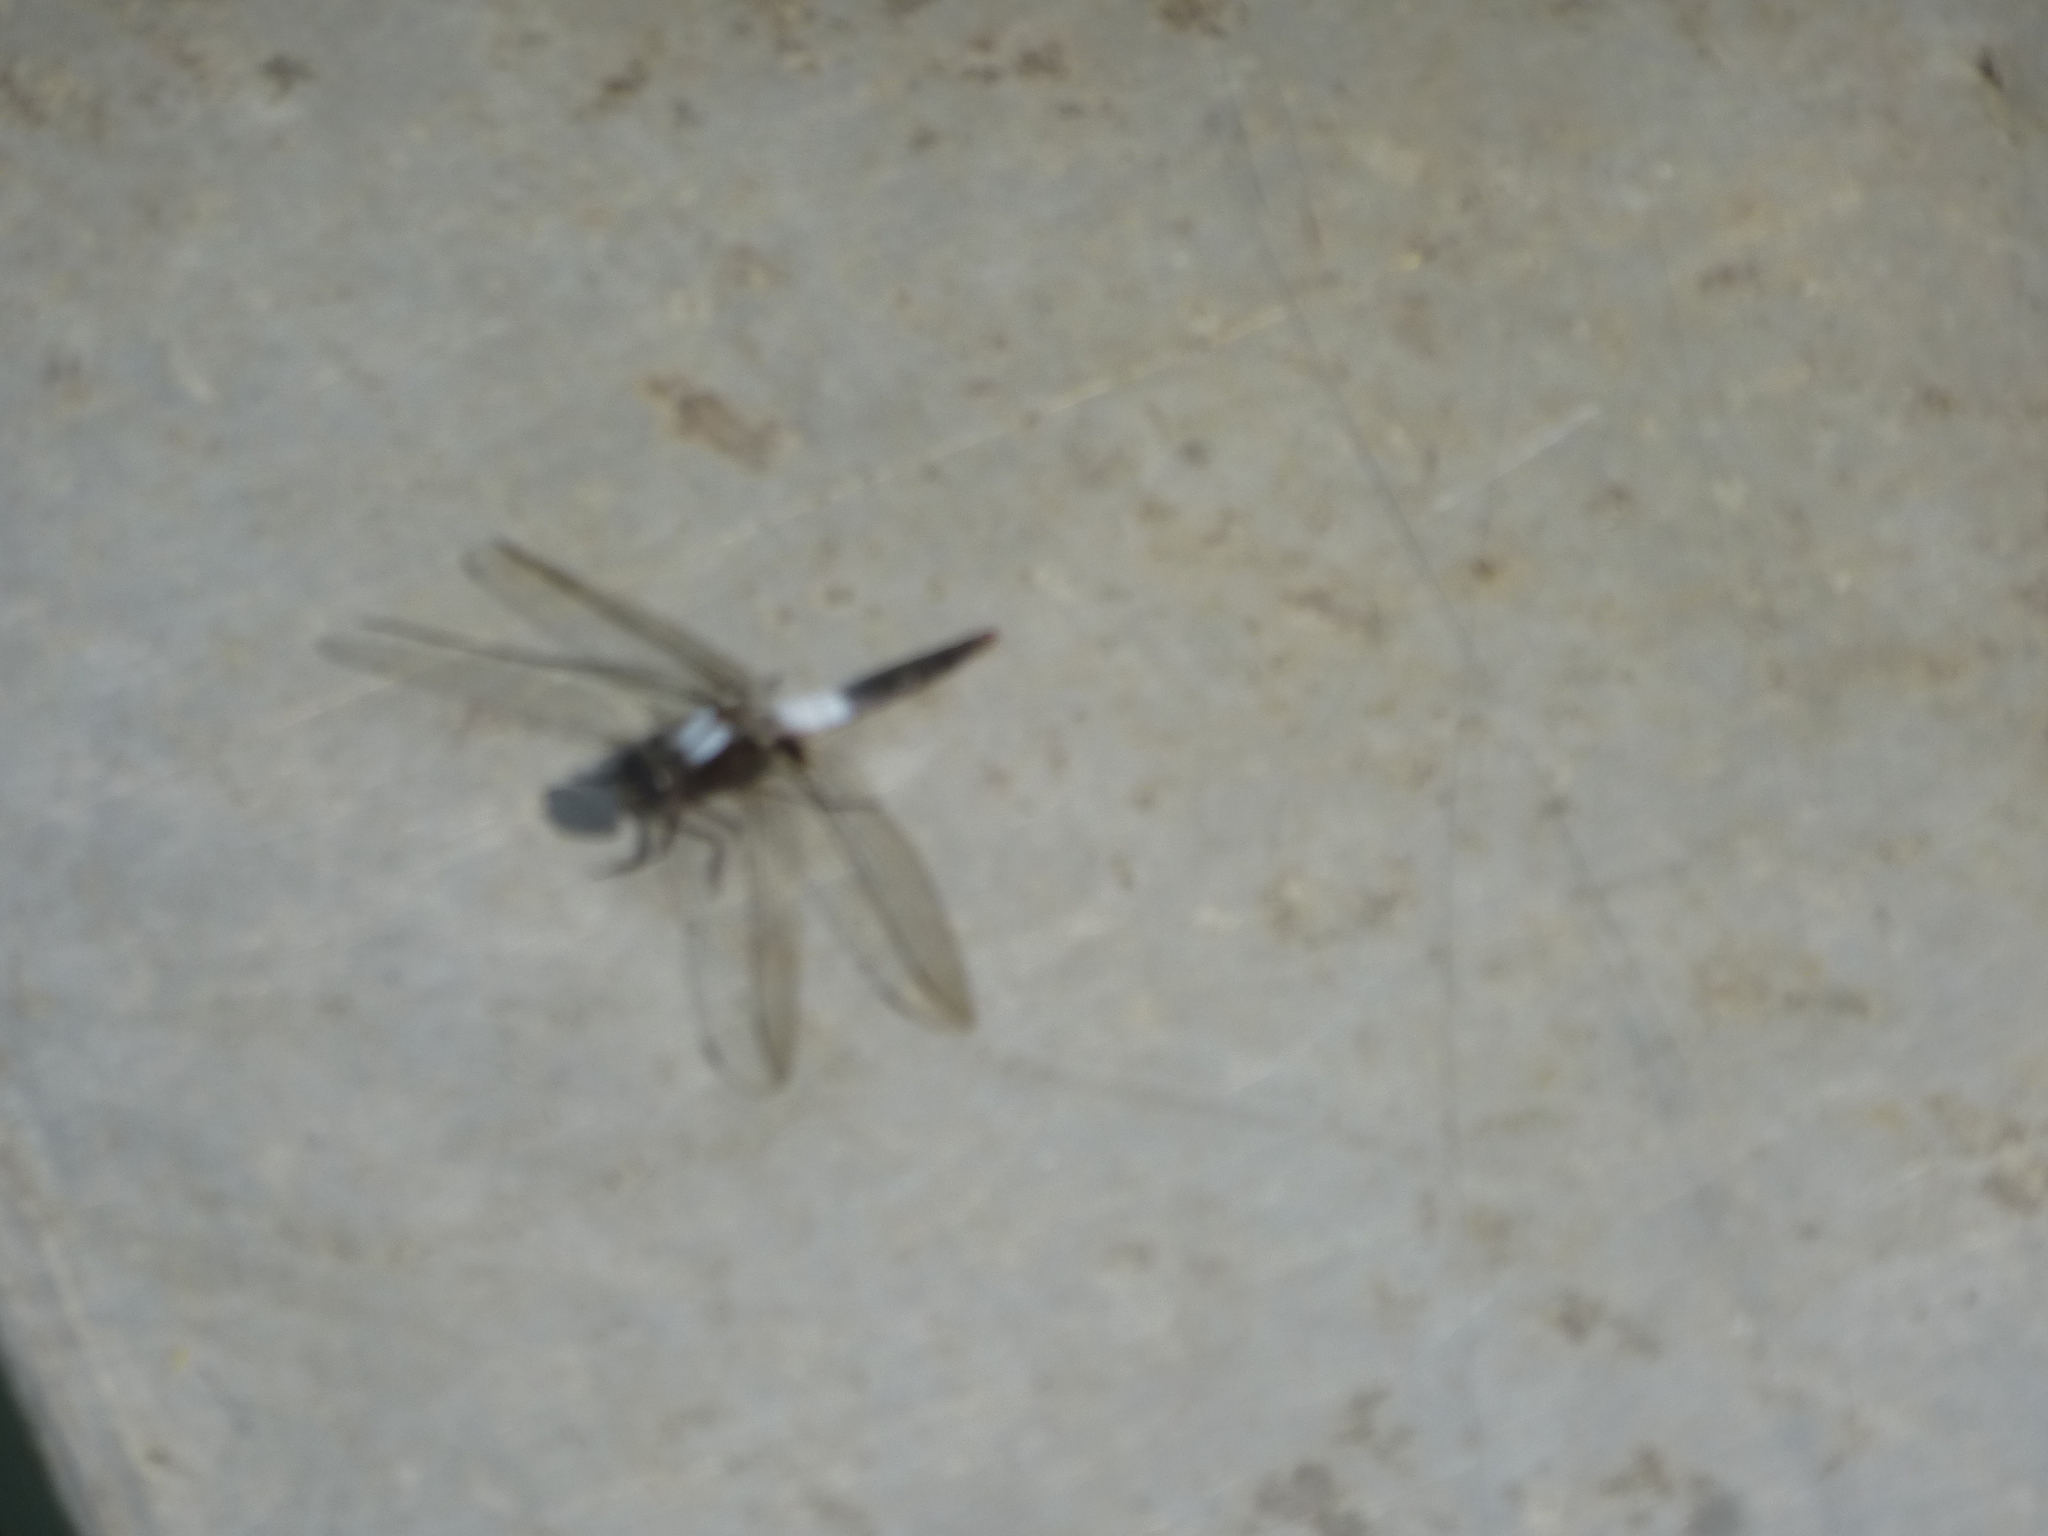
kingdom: Animalia
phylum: Arthropoda
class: Insecta
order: Odonata
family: Libellulidae
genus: Ladona
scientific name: Ladona julia
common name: Chalk-fronted corporal
